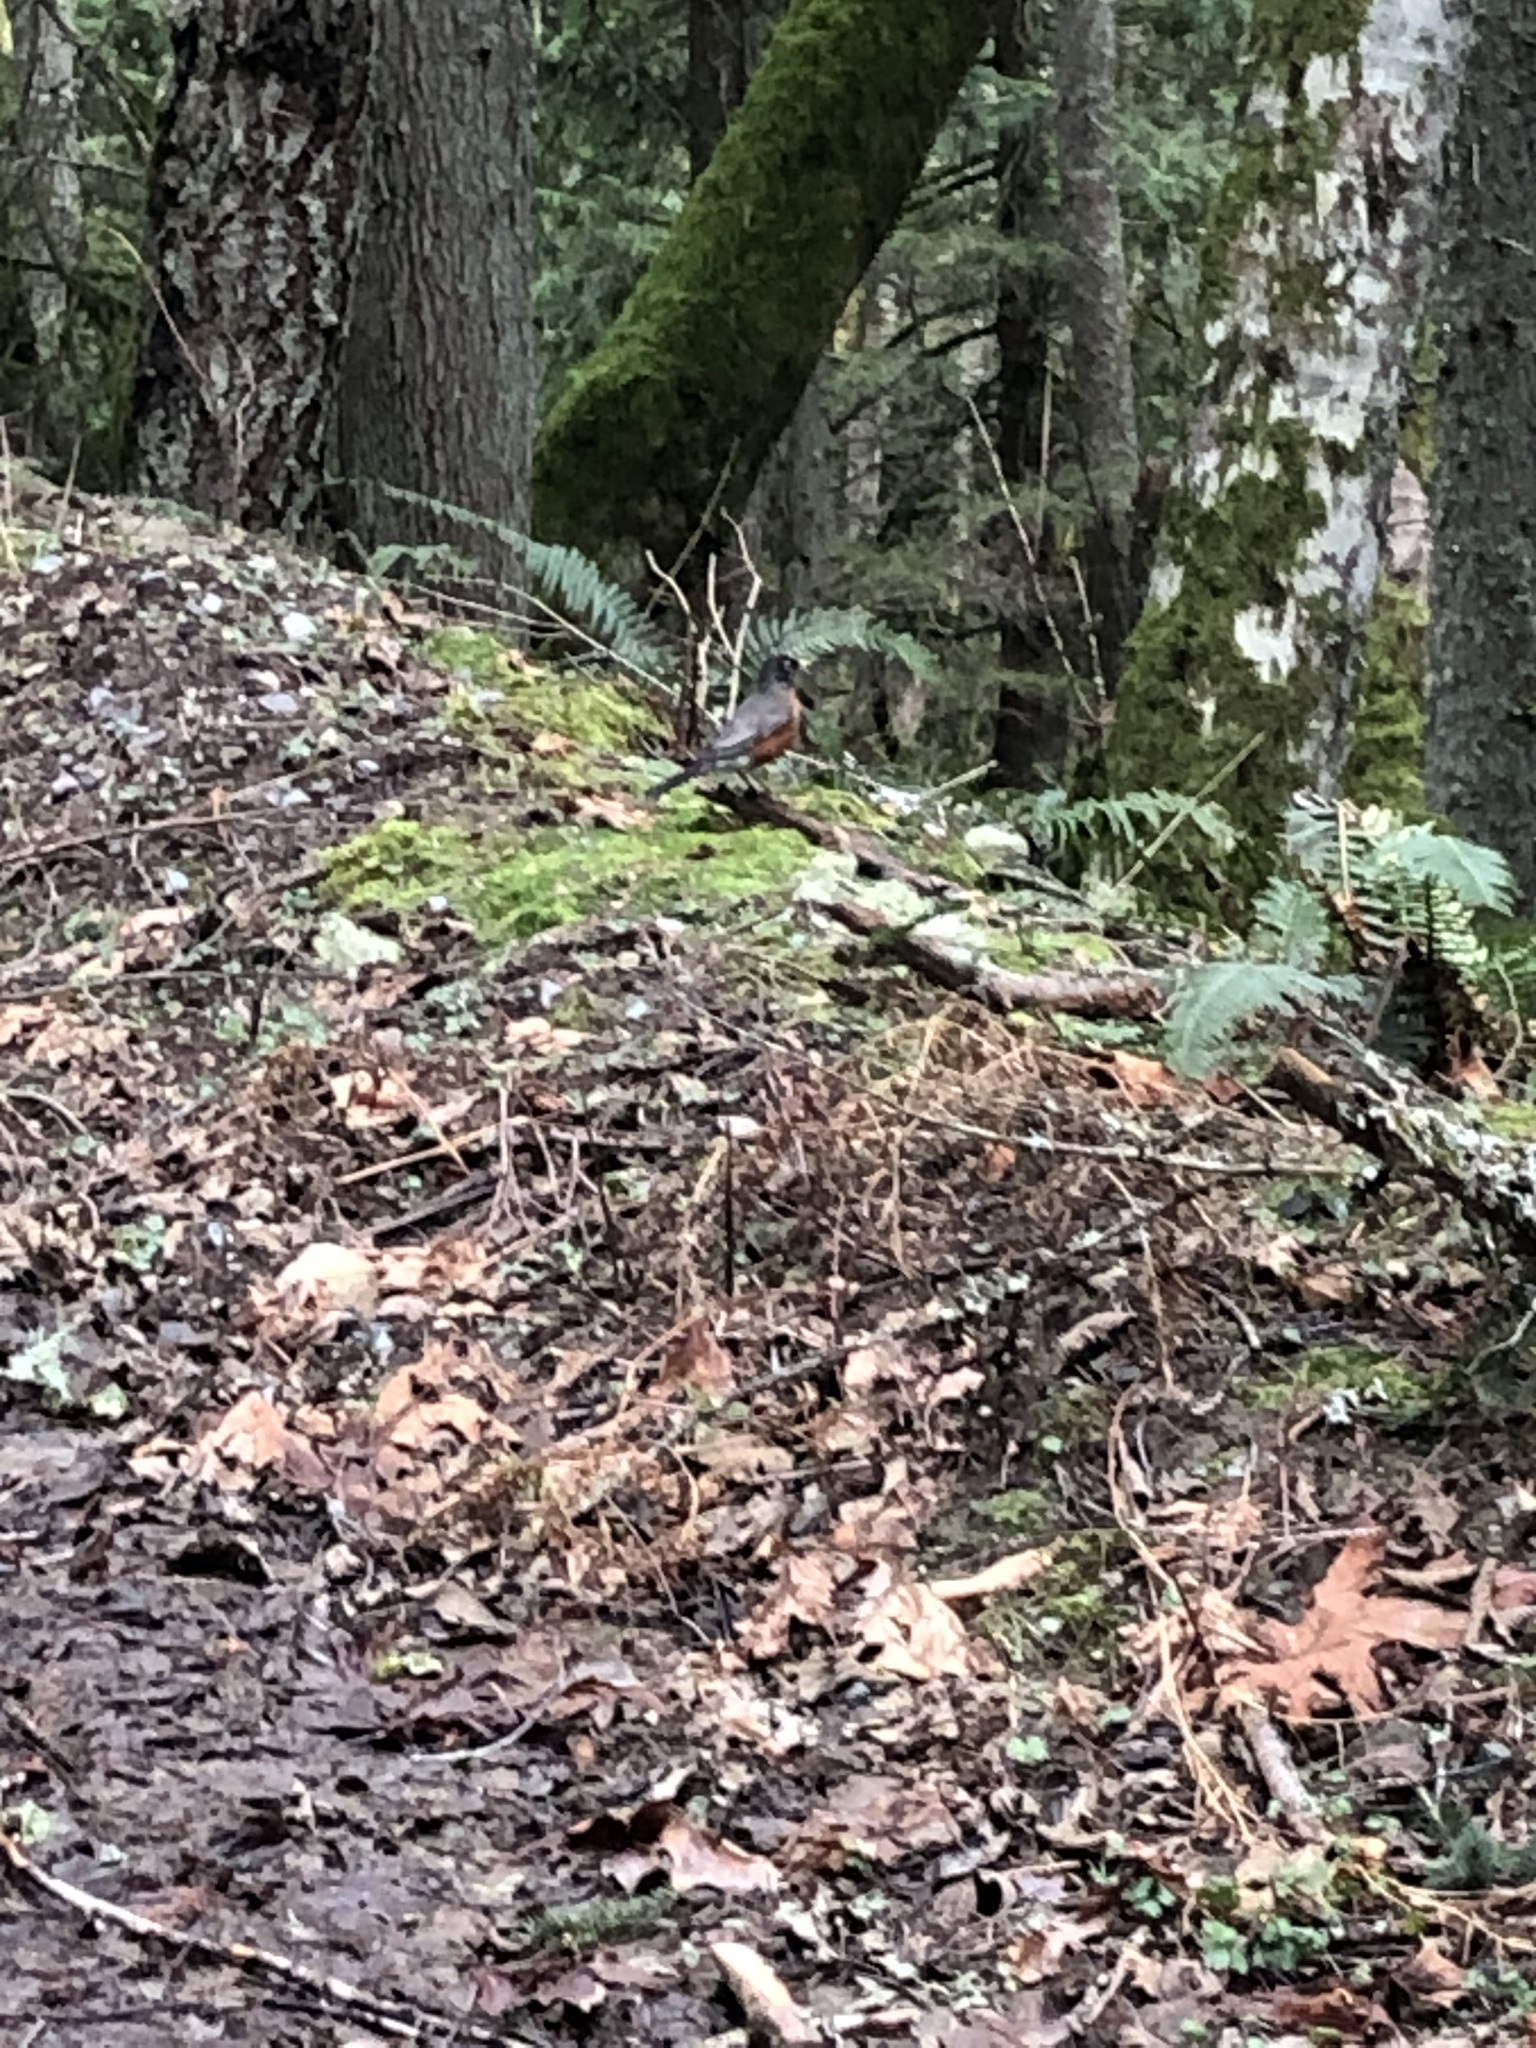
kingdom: Animalia
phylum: Chordata
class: Aves
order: Passeriformes
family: Turdidae
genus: Turdus
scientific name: Turdus migratorius
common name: American robin
